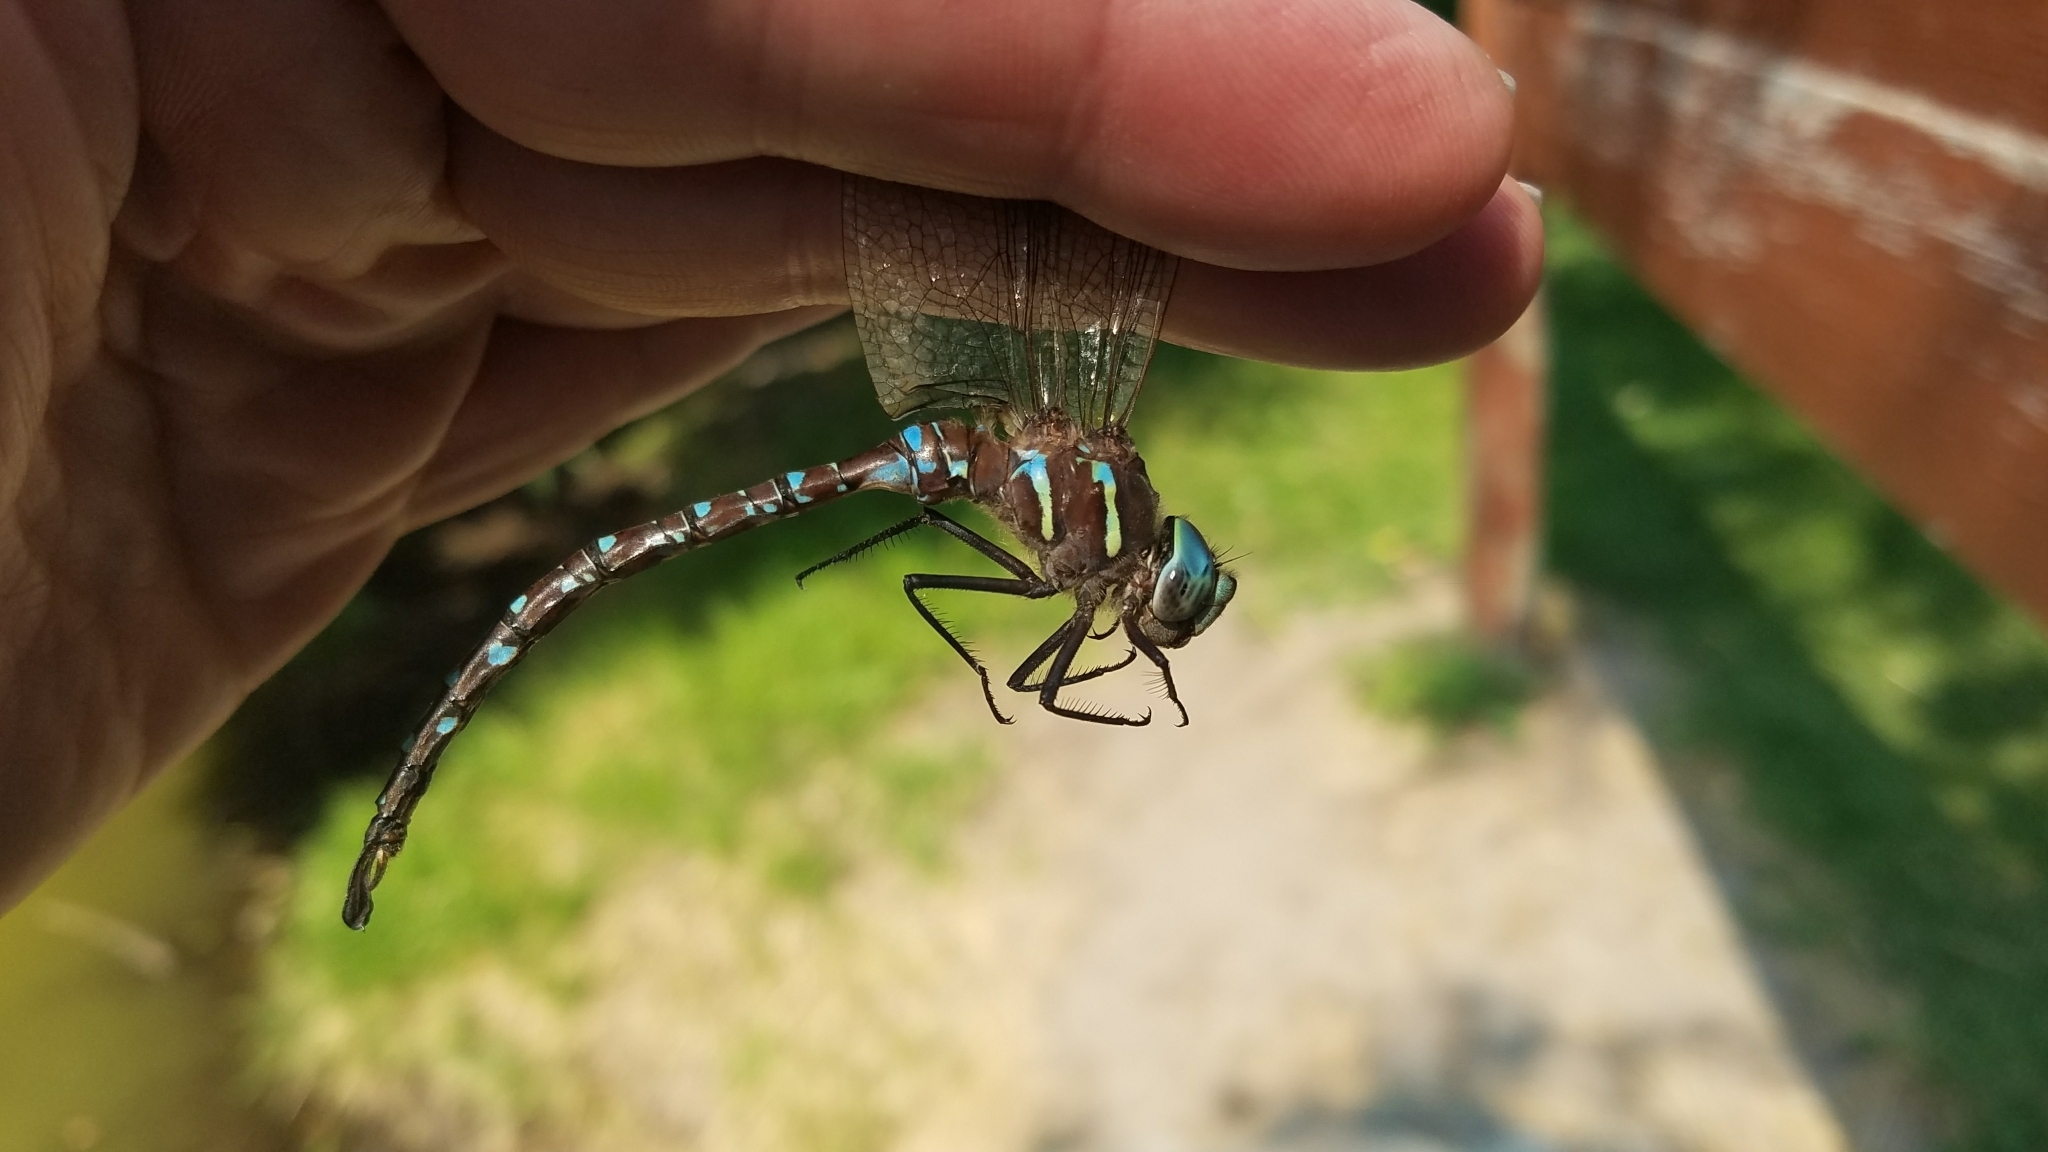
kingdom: Animalia
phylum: Arthropoda
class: Insecta
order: Odonata
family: Aeshnidae
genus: Aeshna
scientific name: Aeshna umbrosa
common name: Shadow darner
